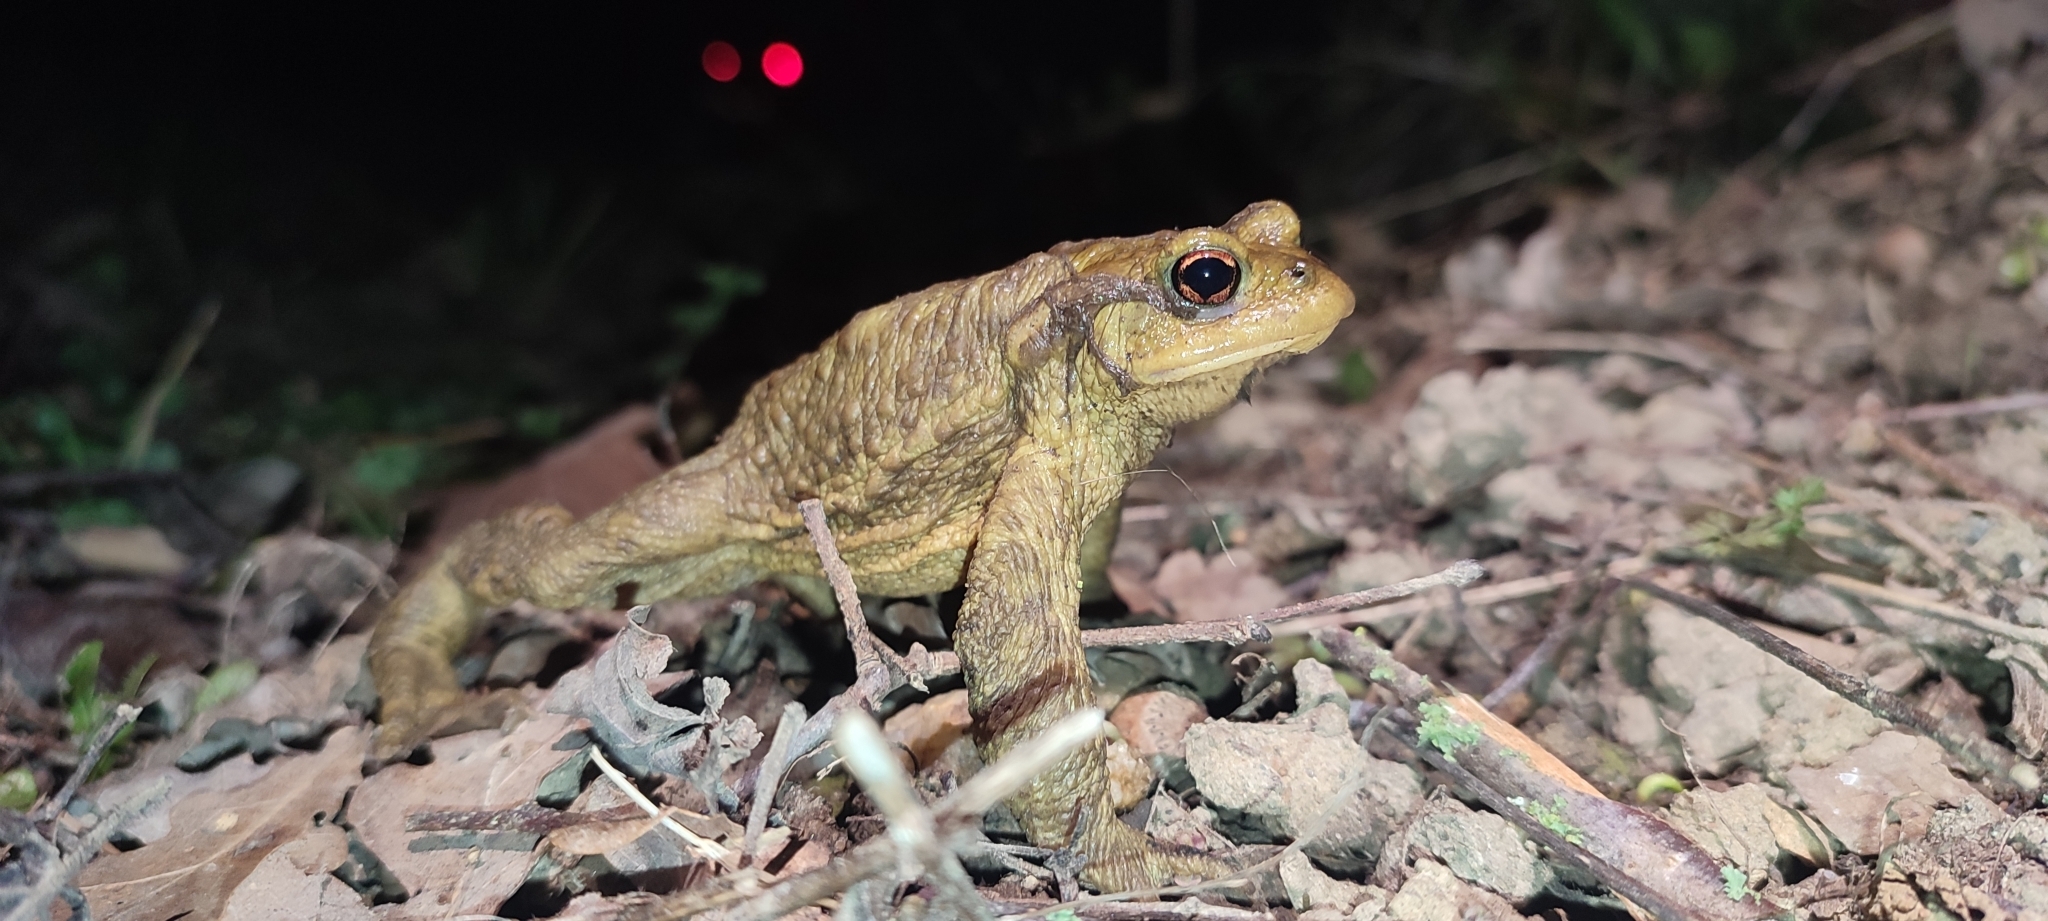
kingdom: Animalia
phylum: Chordata
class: Amphibia
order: Anura
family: Bufonidae
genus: Bufo
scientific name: Bufo spinosus
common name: Western common toad
